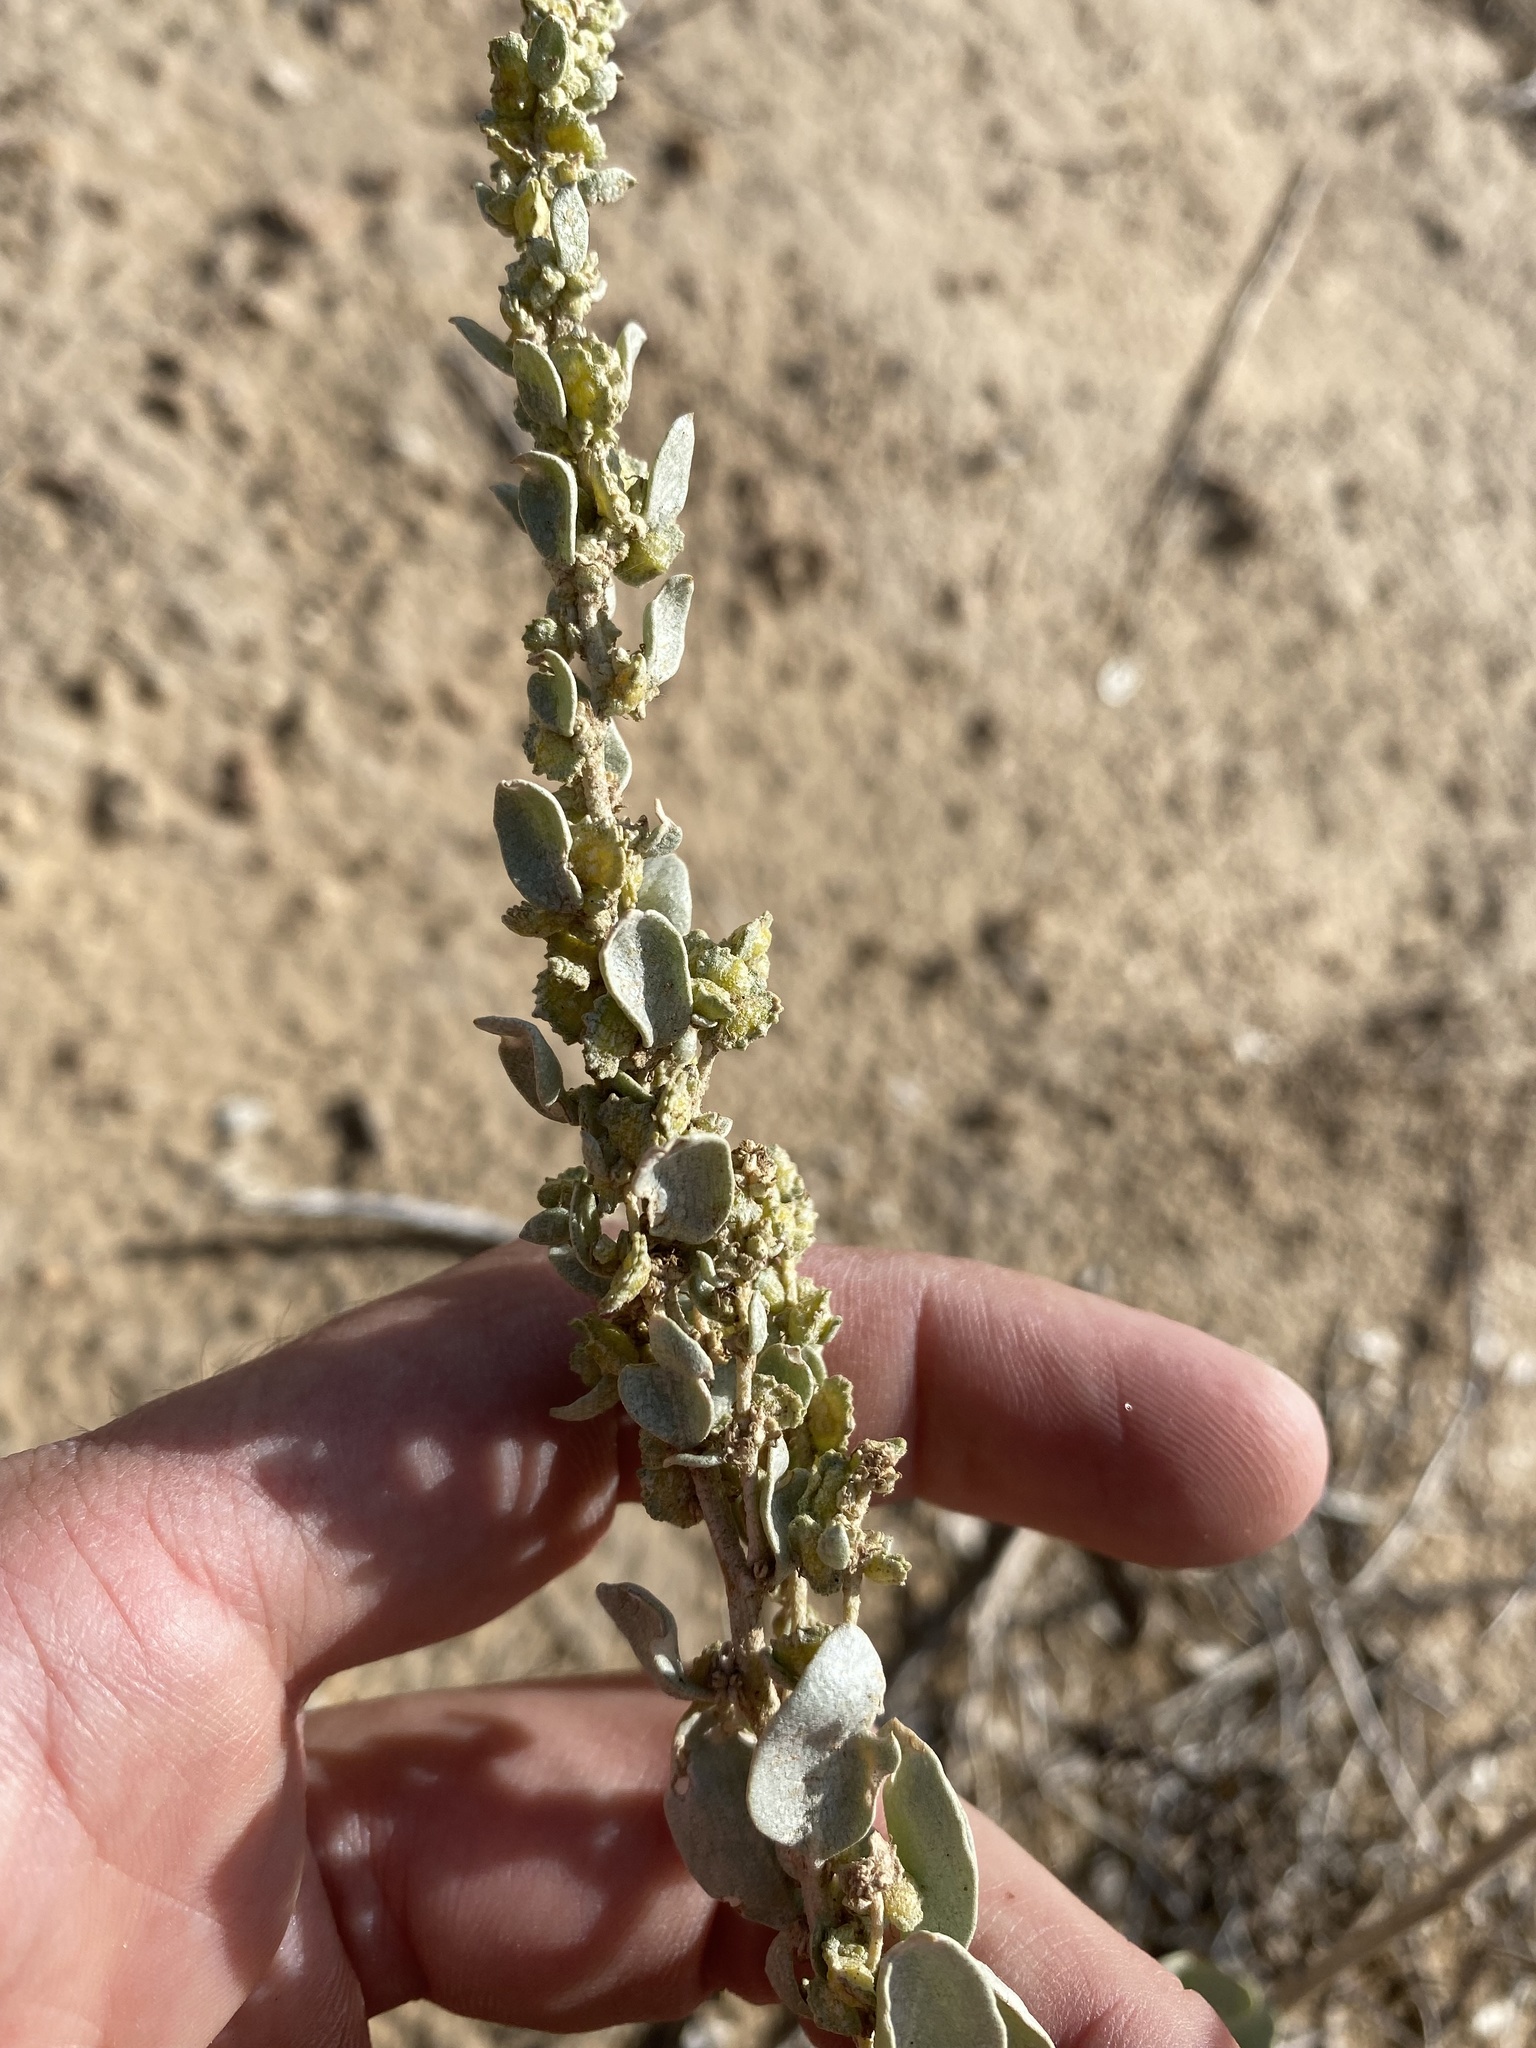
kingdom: Plantae
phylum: Tracheophyta
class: Magnoliopsida
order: Caryophyllales
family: Amaranthaceae
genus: Atriplex
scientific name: Atriplex obovata
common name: New mexico saltbush
